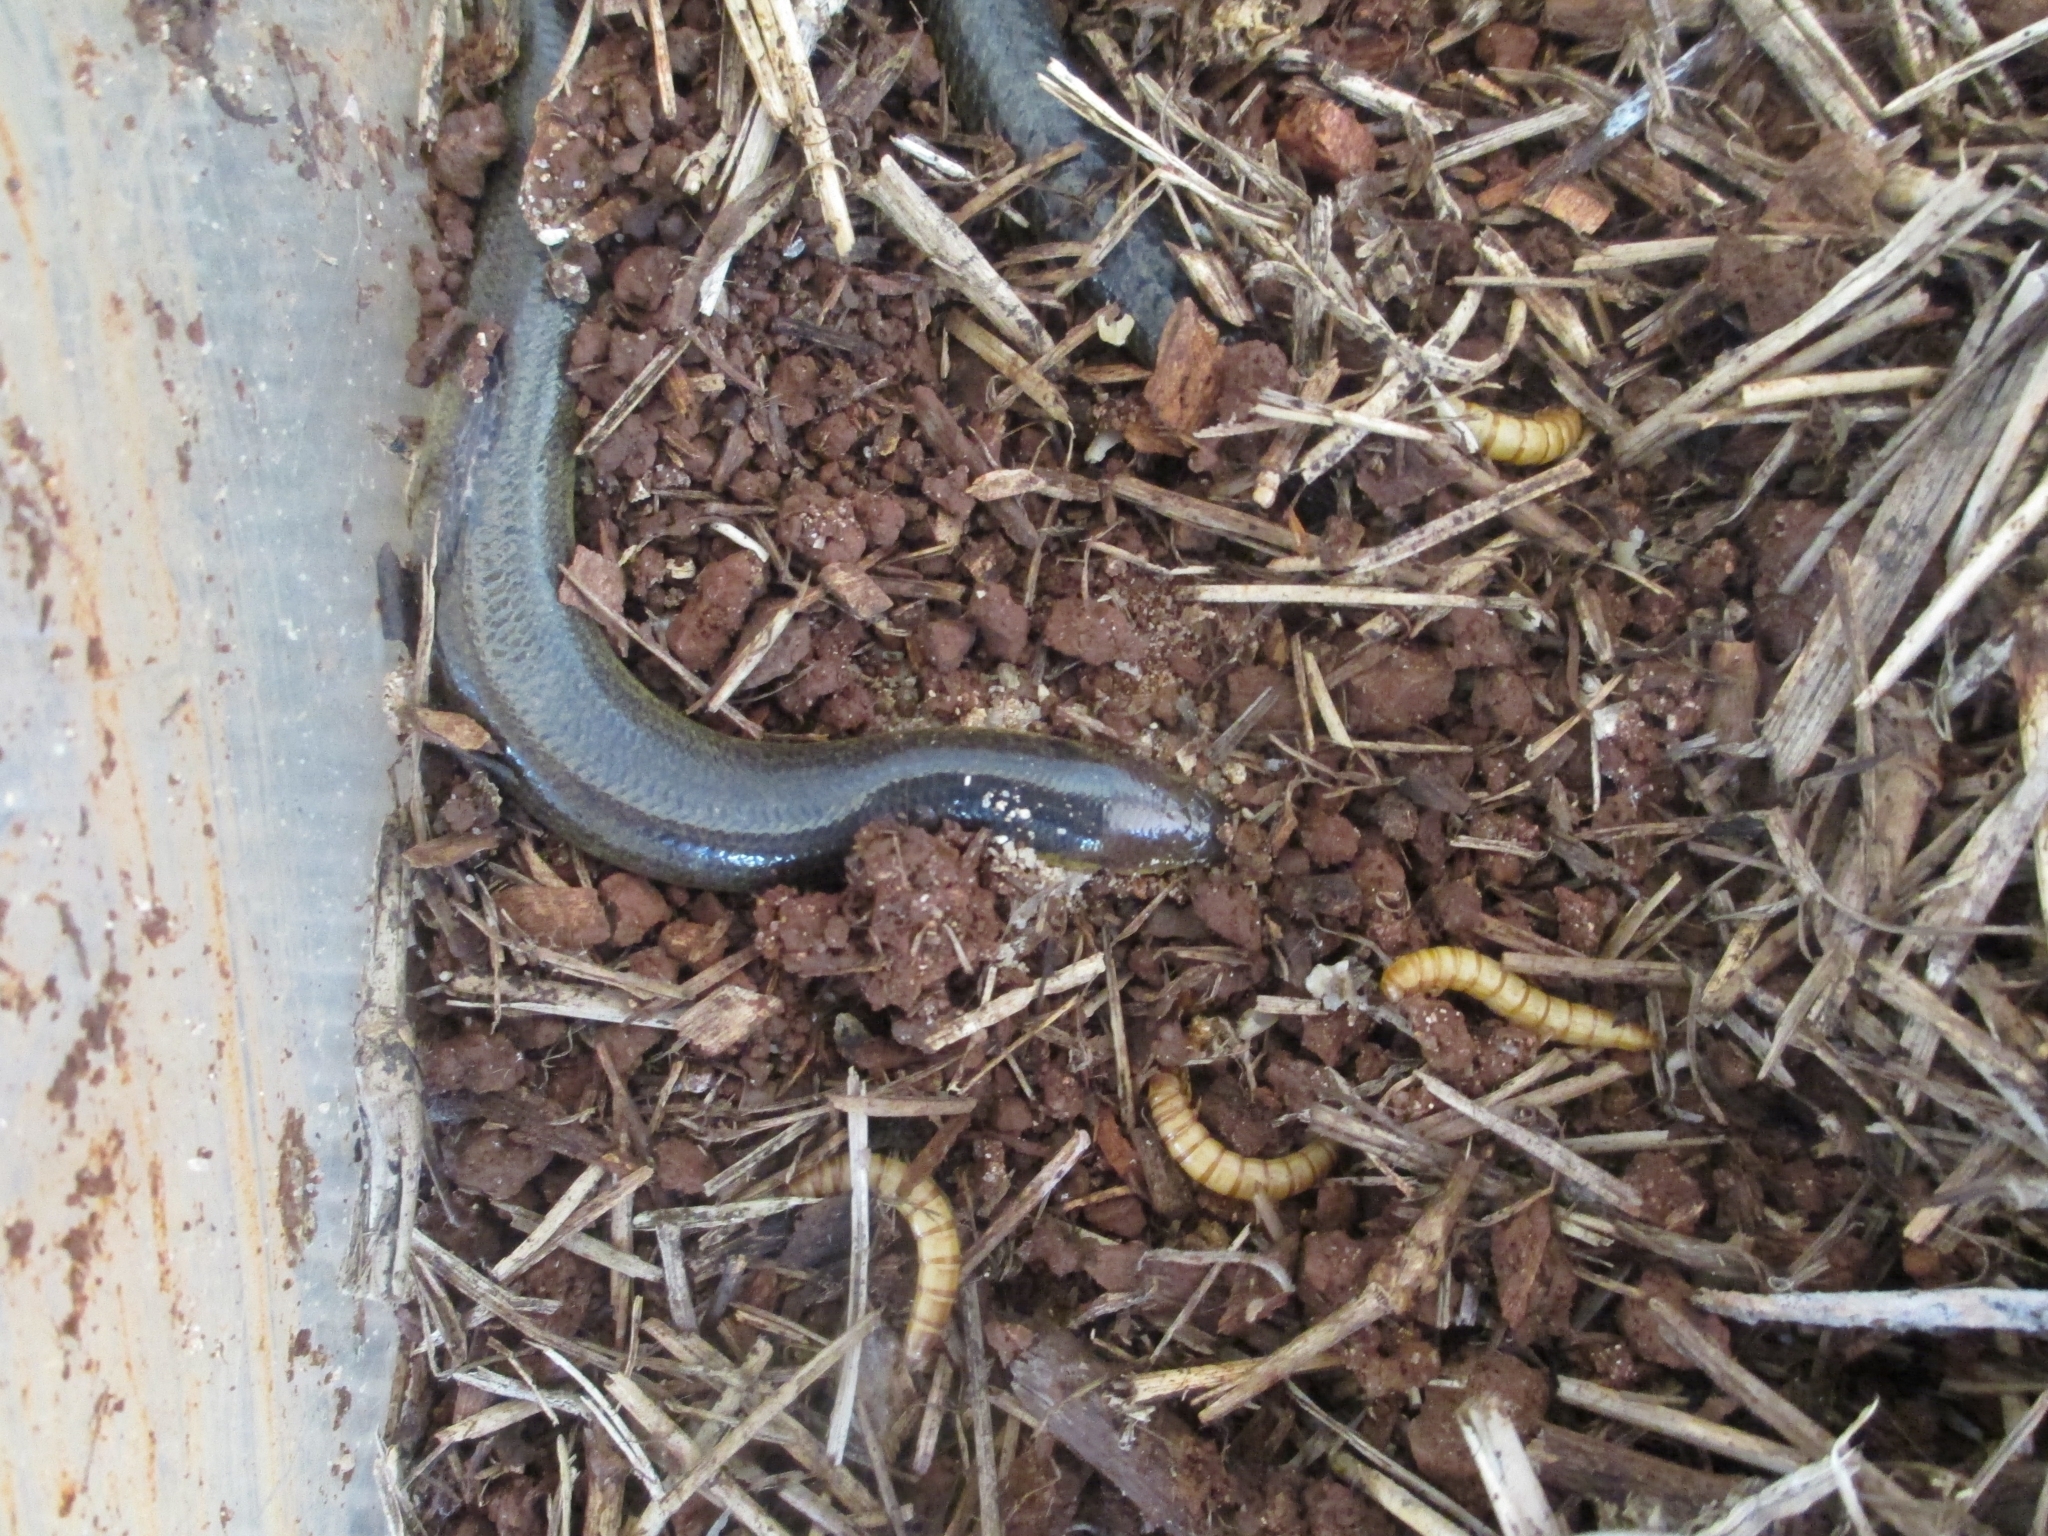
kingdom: Animalia
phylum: Chordata
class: Squamata
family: Scincidae
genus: Coeranoscincus
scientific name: Coeranoscincus frontalis
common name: Limbless snake-tooth skink
